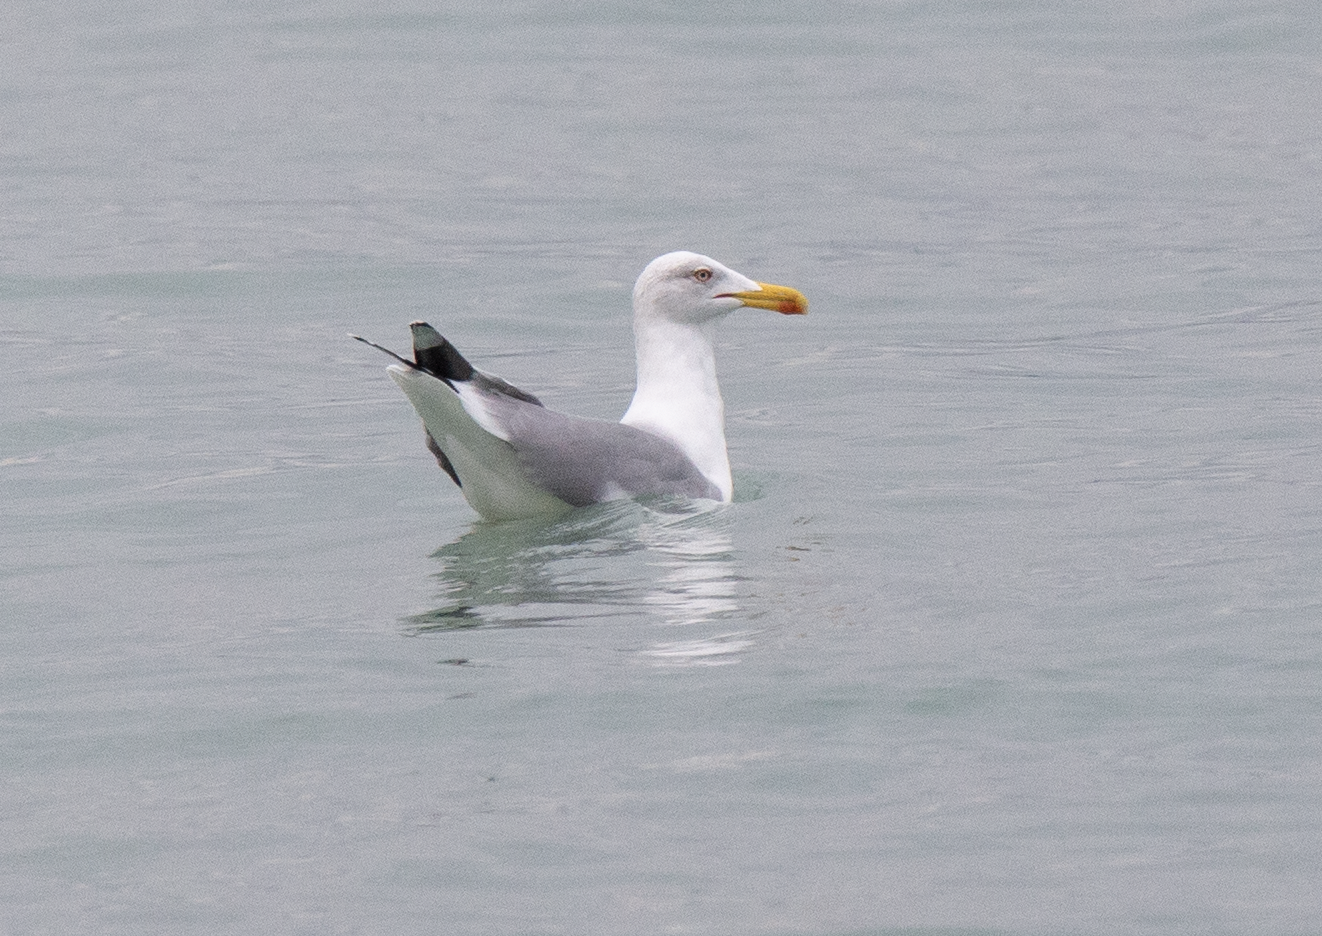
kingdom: Animalia
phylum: Chordata
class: Aves
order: Charadriiformes
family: Laridae
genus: Larus
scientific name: Larus michahellis
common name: Yellow-legged gull
